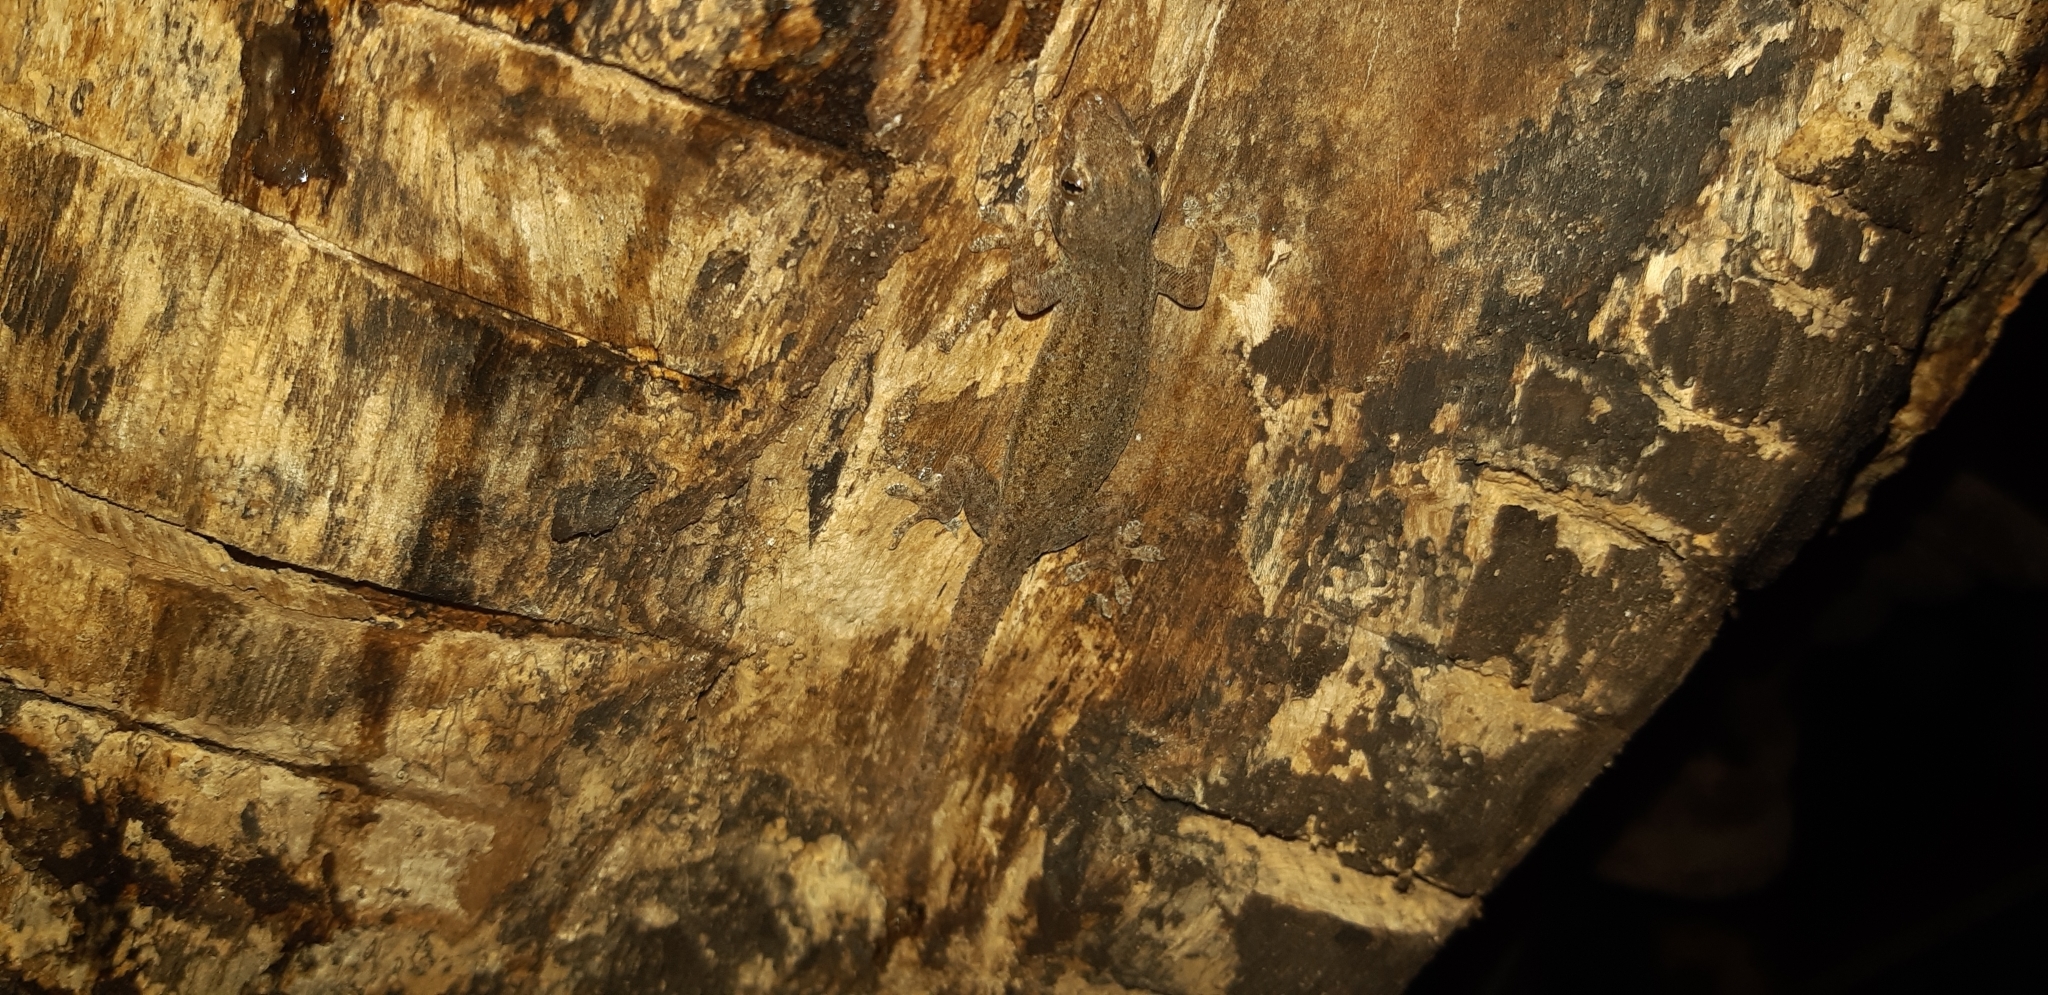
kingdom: Animalia
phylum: Chordata
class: Squamata
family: Gekkonidae
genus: Hemidactylus
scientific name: Hemidactylus frenatus
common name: Common house gecko
